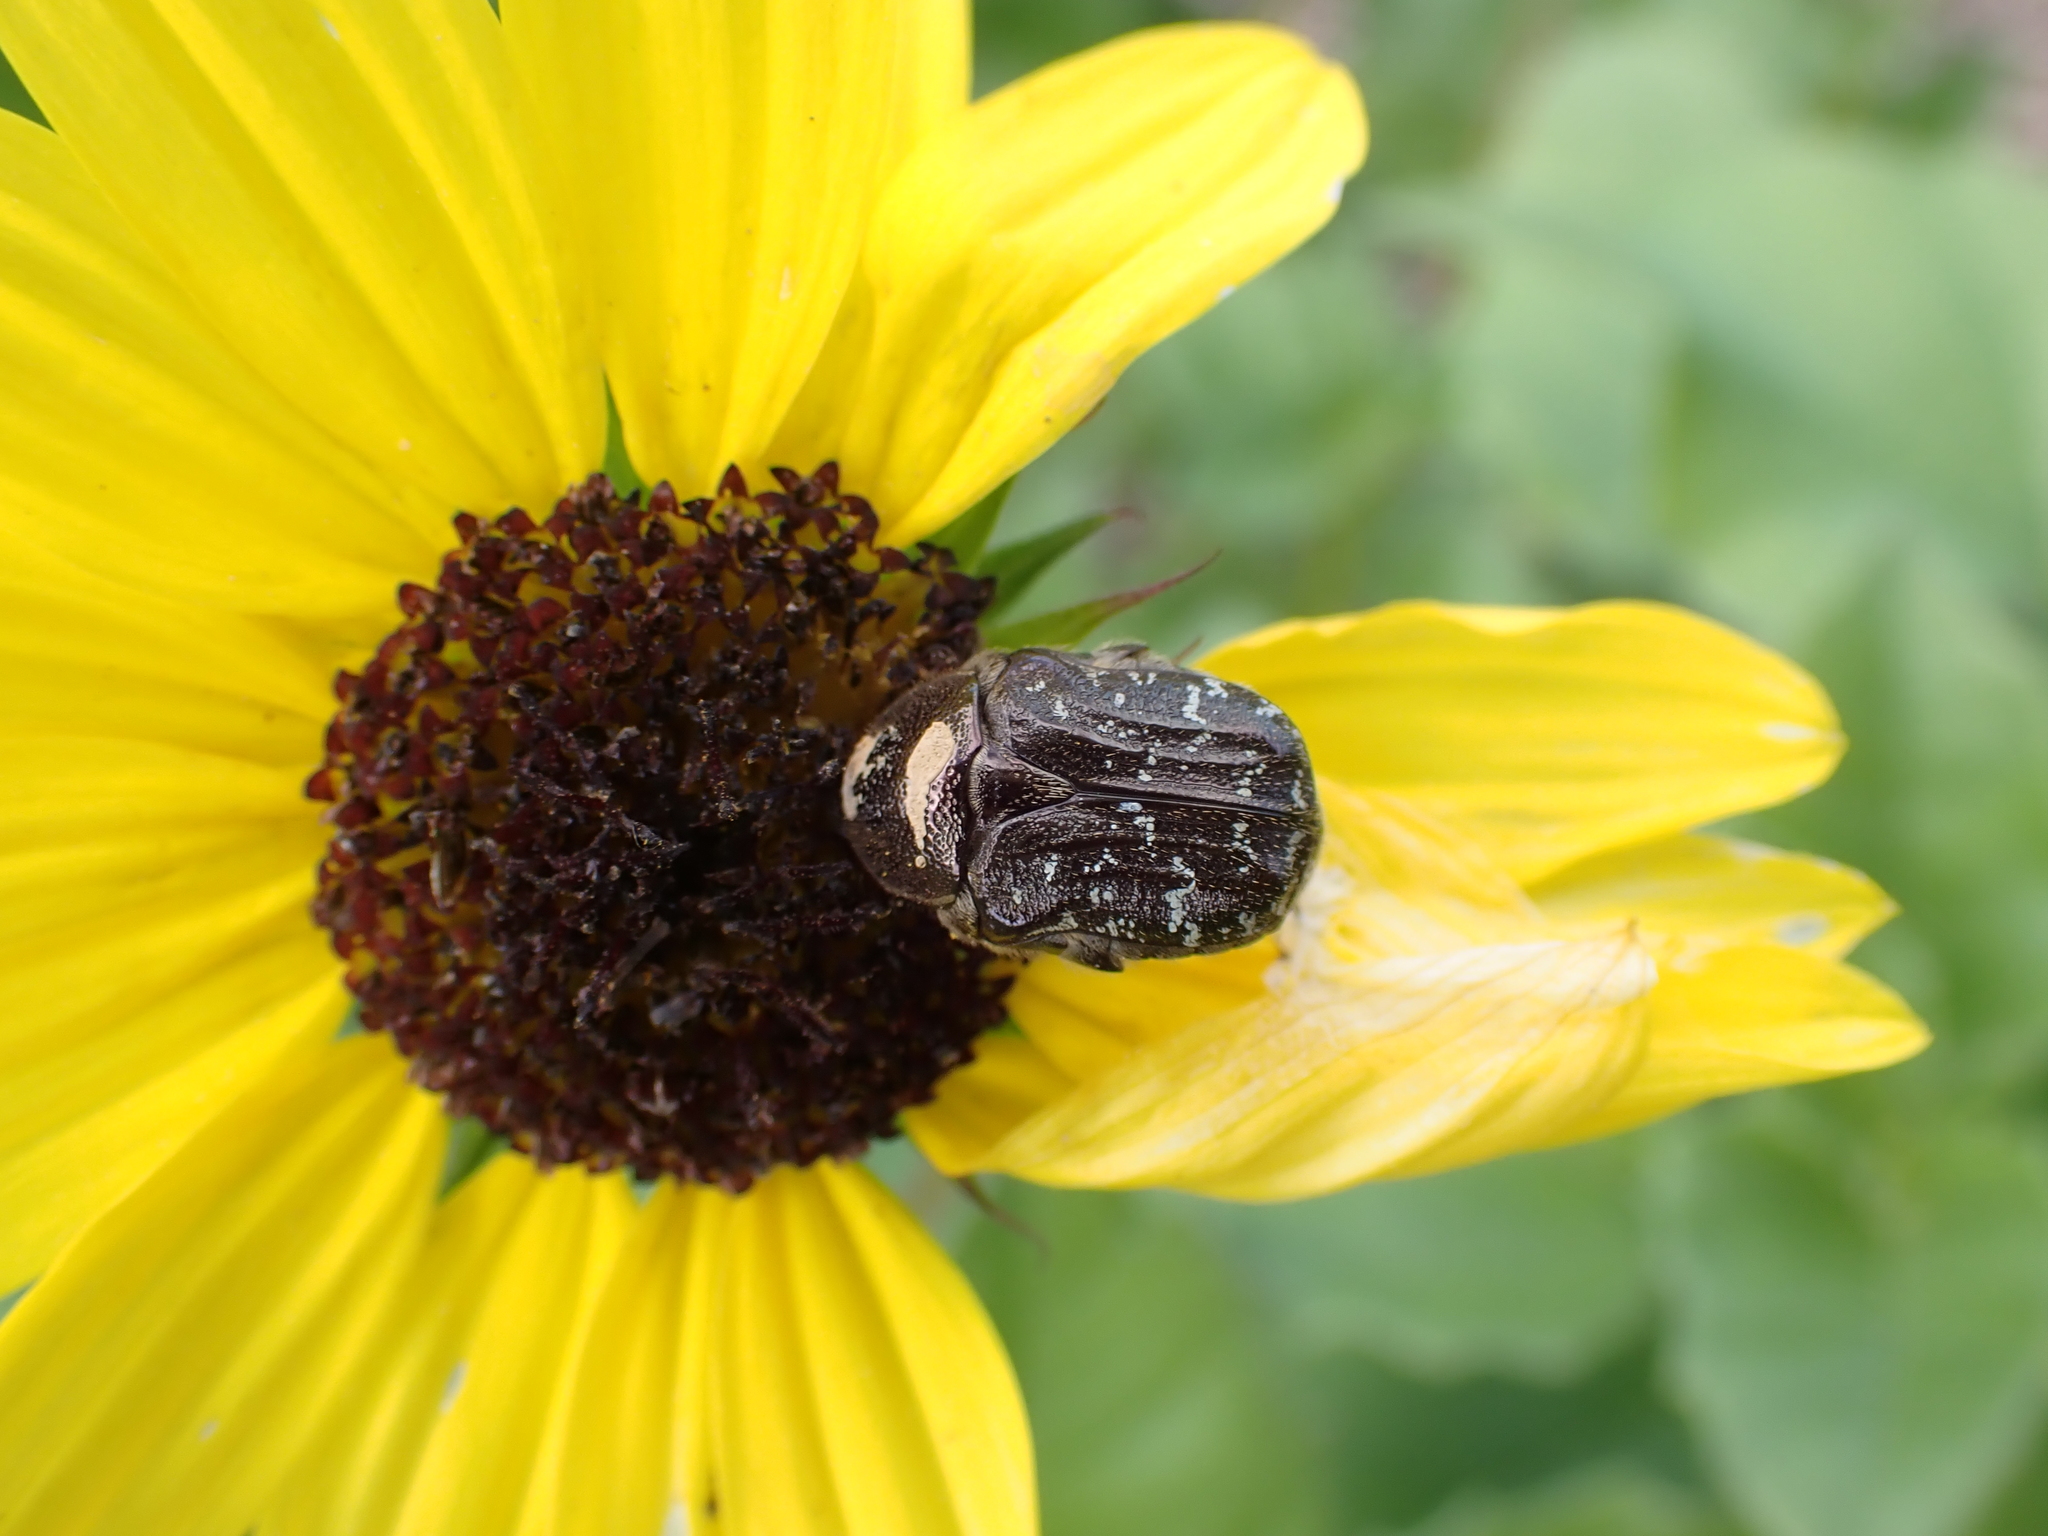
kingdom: Animalia
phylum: Arthropoda
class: Insecta
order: Coleoptera
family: Scarabaeidae
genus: Euphoria
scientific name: Euphoria sepulcralis
